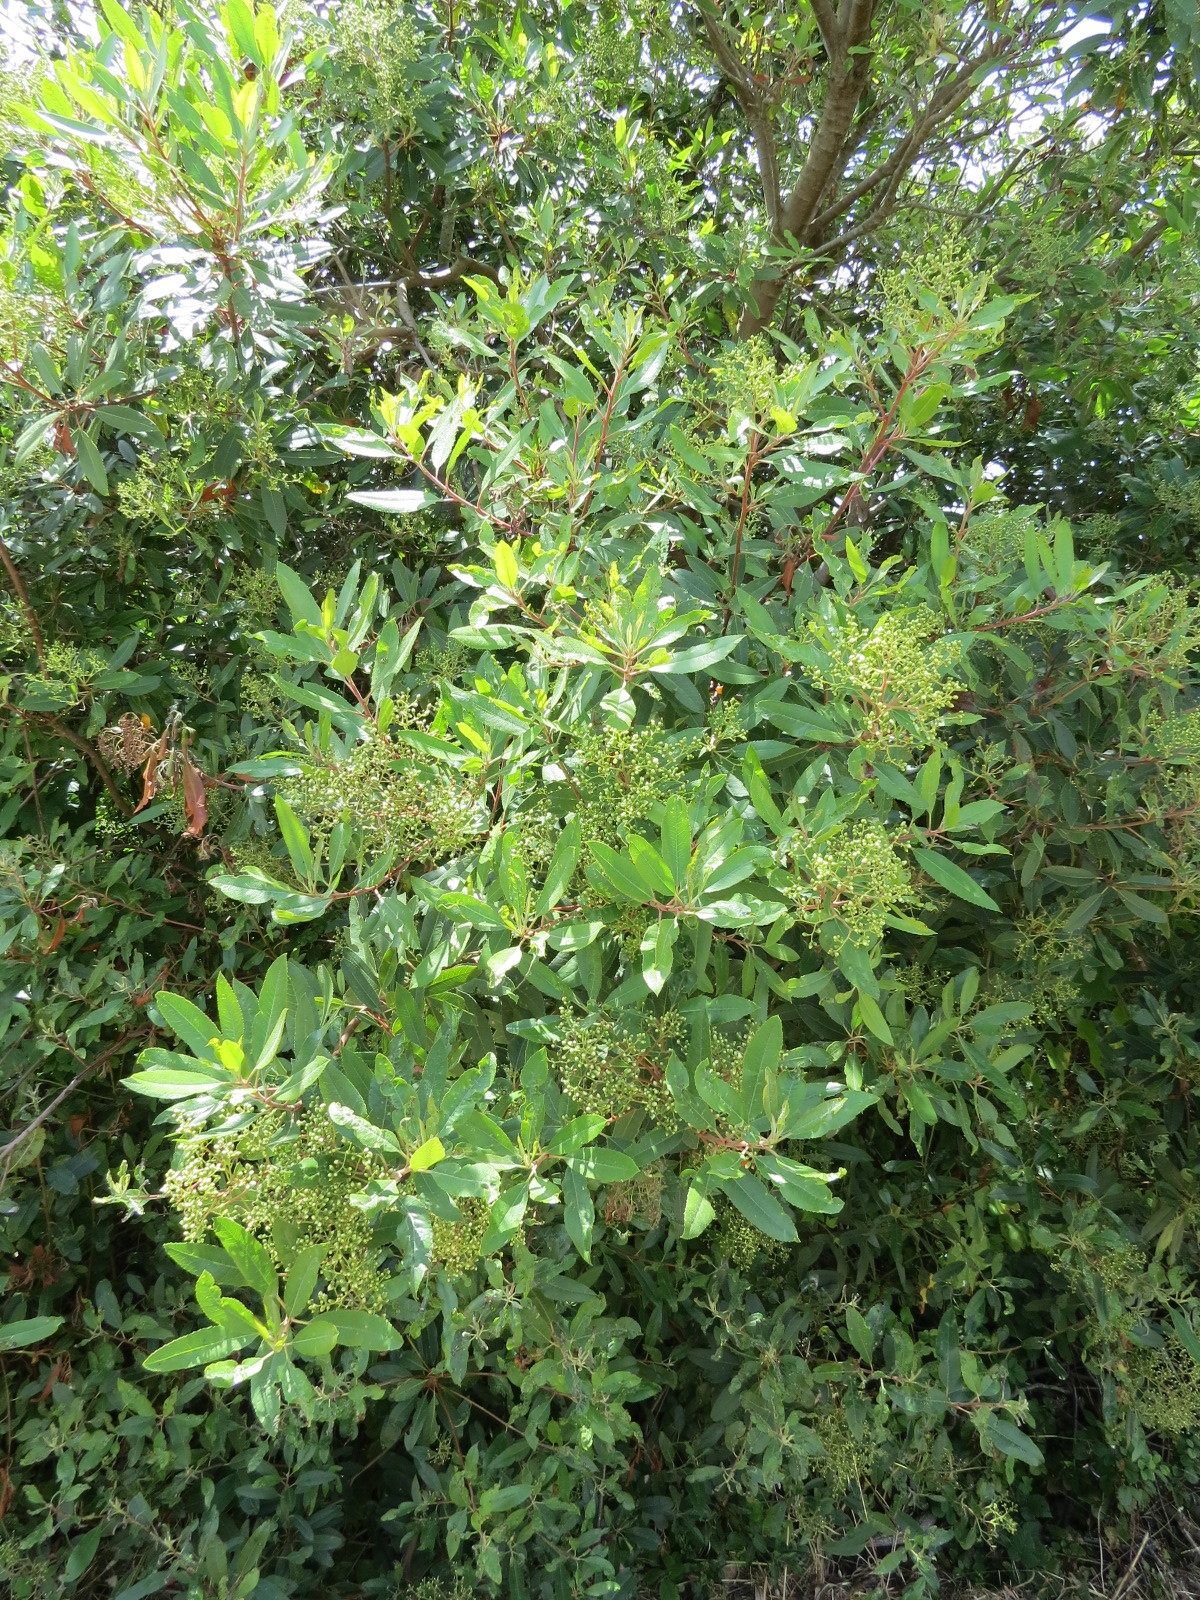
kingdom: Plantae
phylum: Tracheophyta
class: Magnoliopsida
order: Rosales
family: Rosaceae
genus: Heteromeles
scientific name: Heteromeles arbutifolia
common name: California-holly
